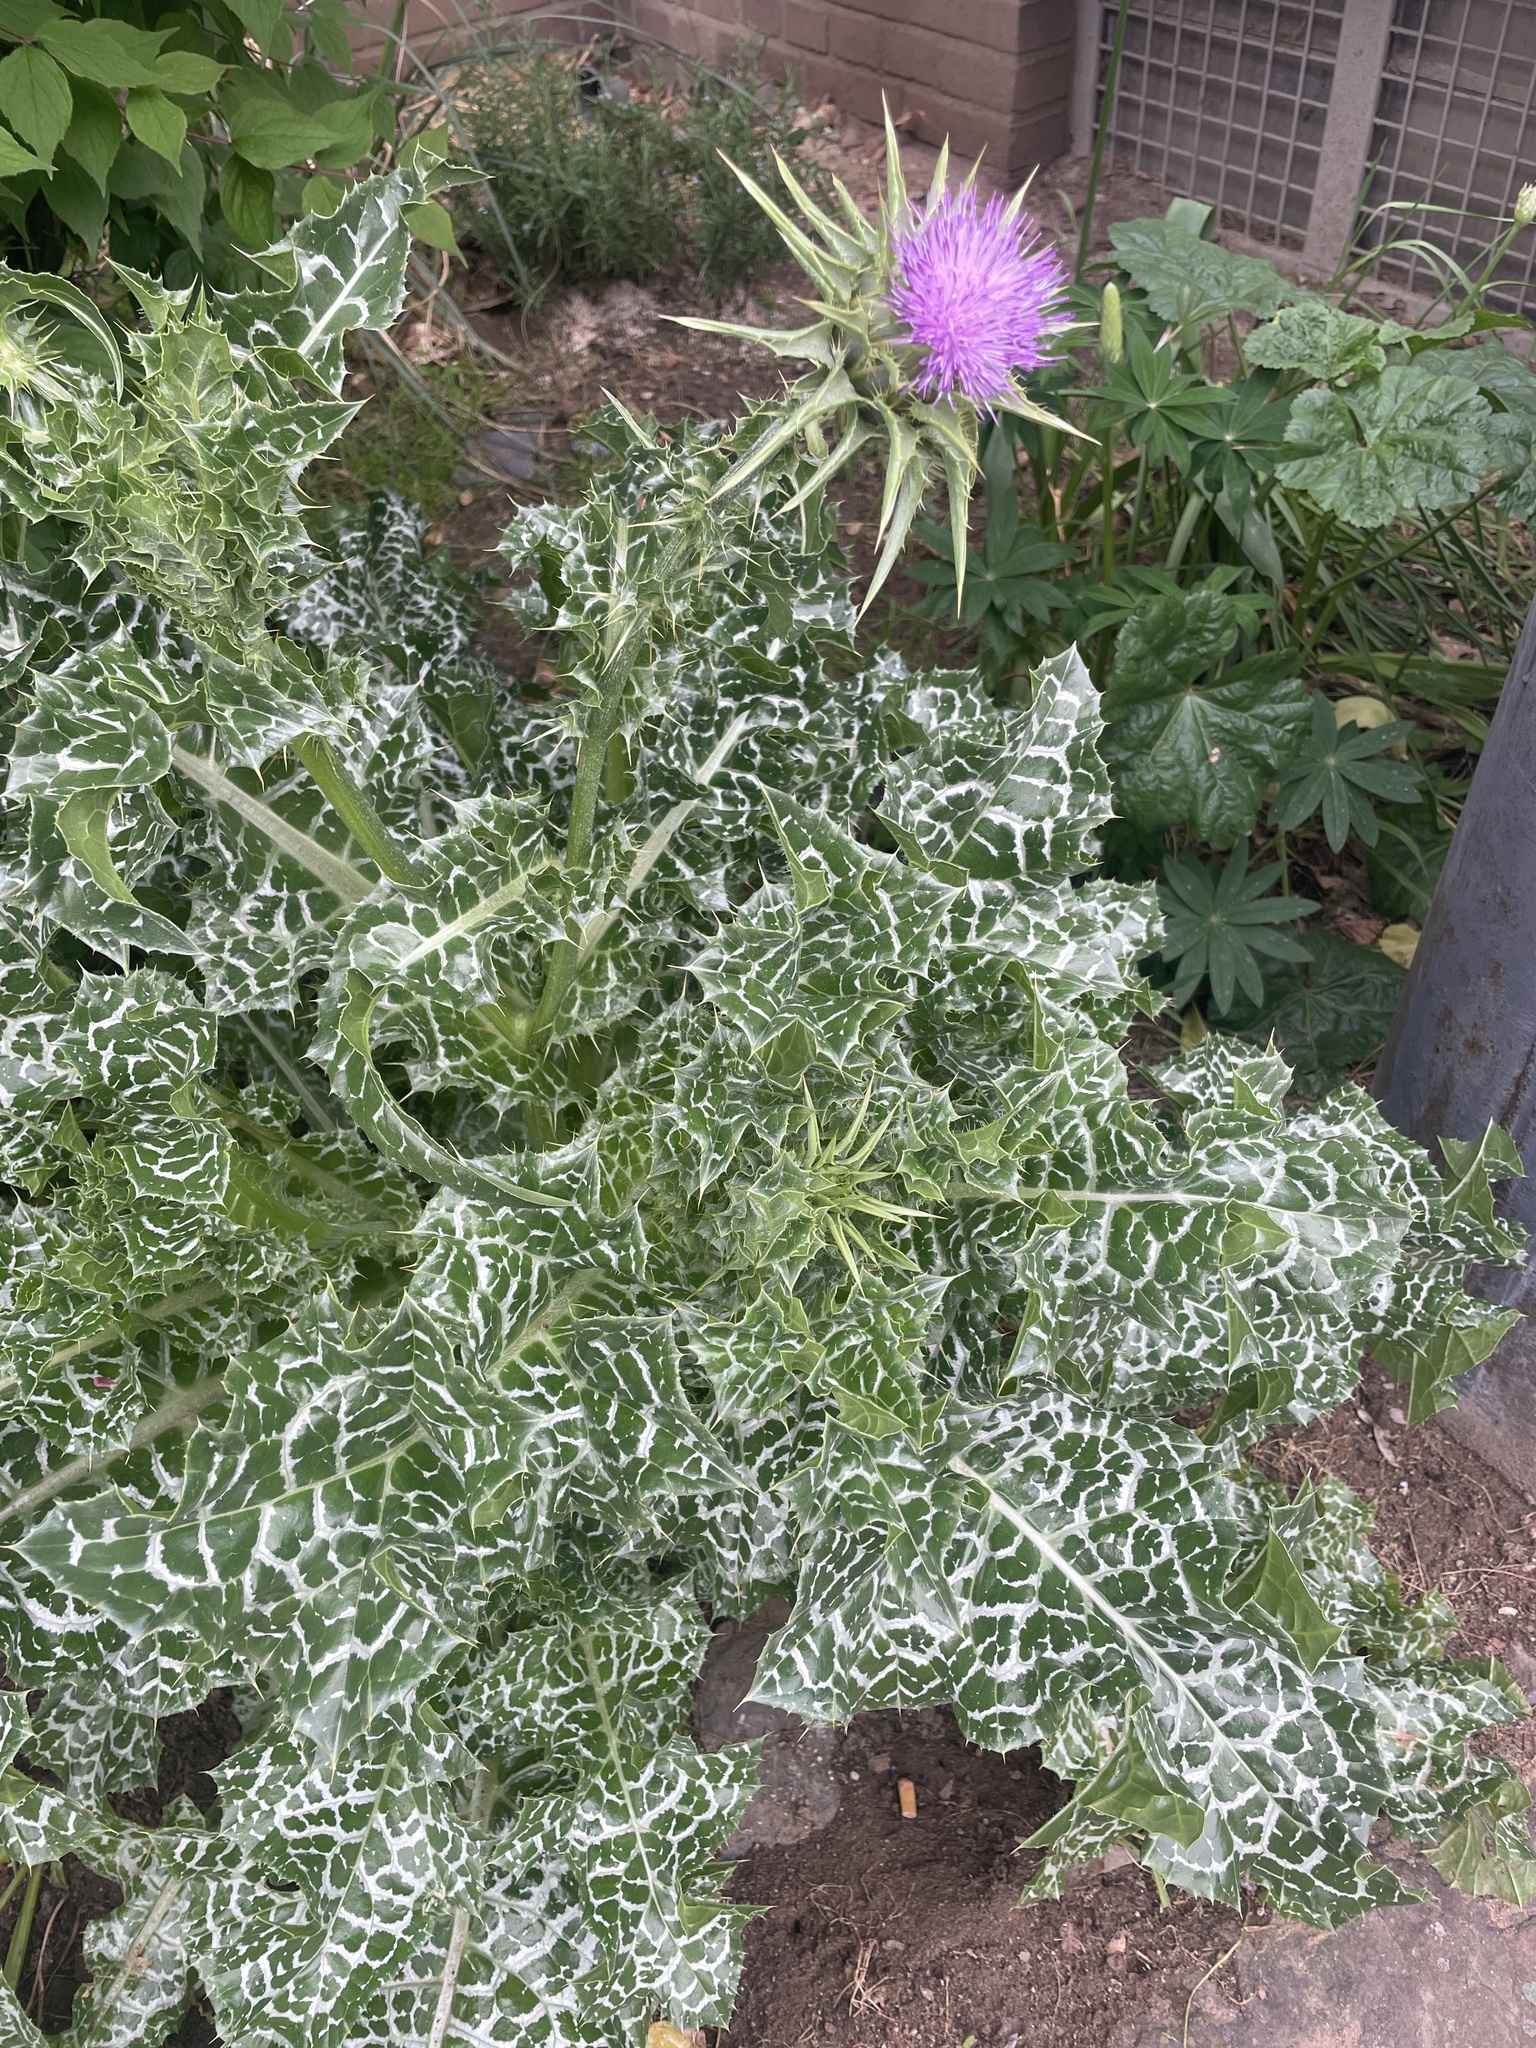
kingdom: Plantae
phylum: Tracheophyta
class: Magnoliopsida
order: Asterales
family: Asteraceae
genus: Silybum
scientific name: Silybum marianum
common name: Milk thistle
